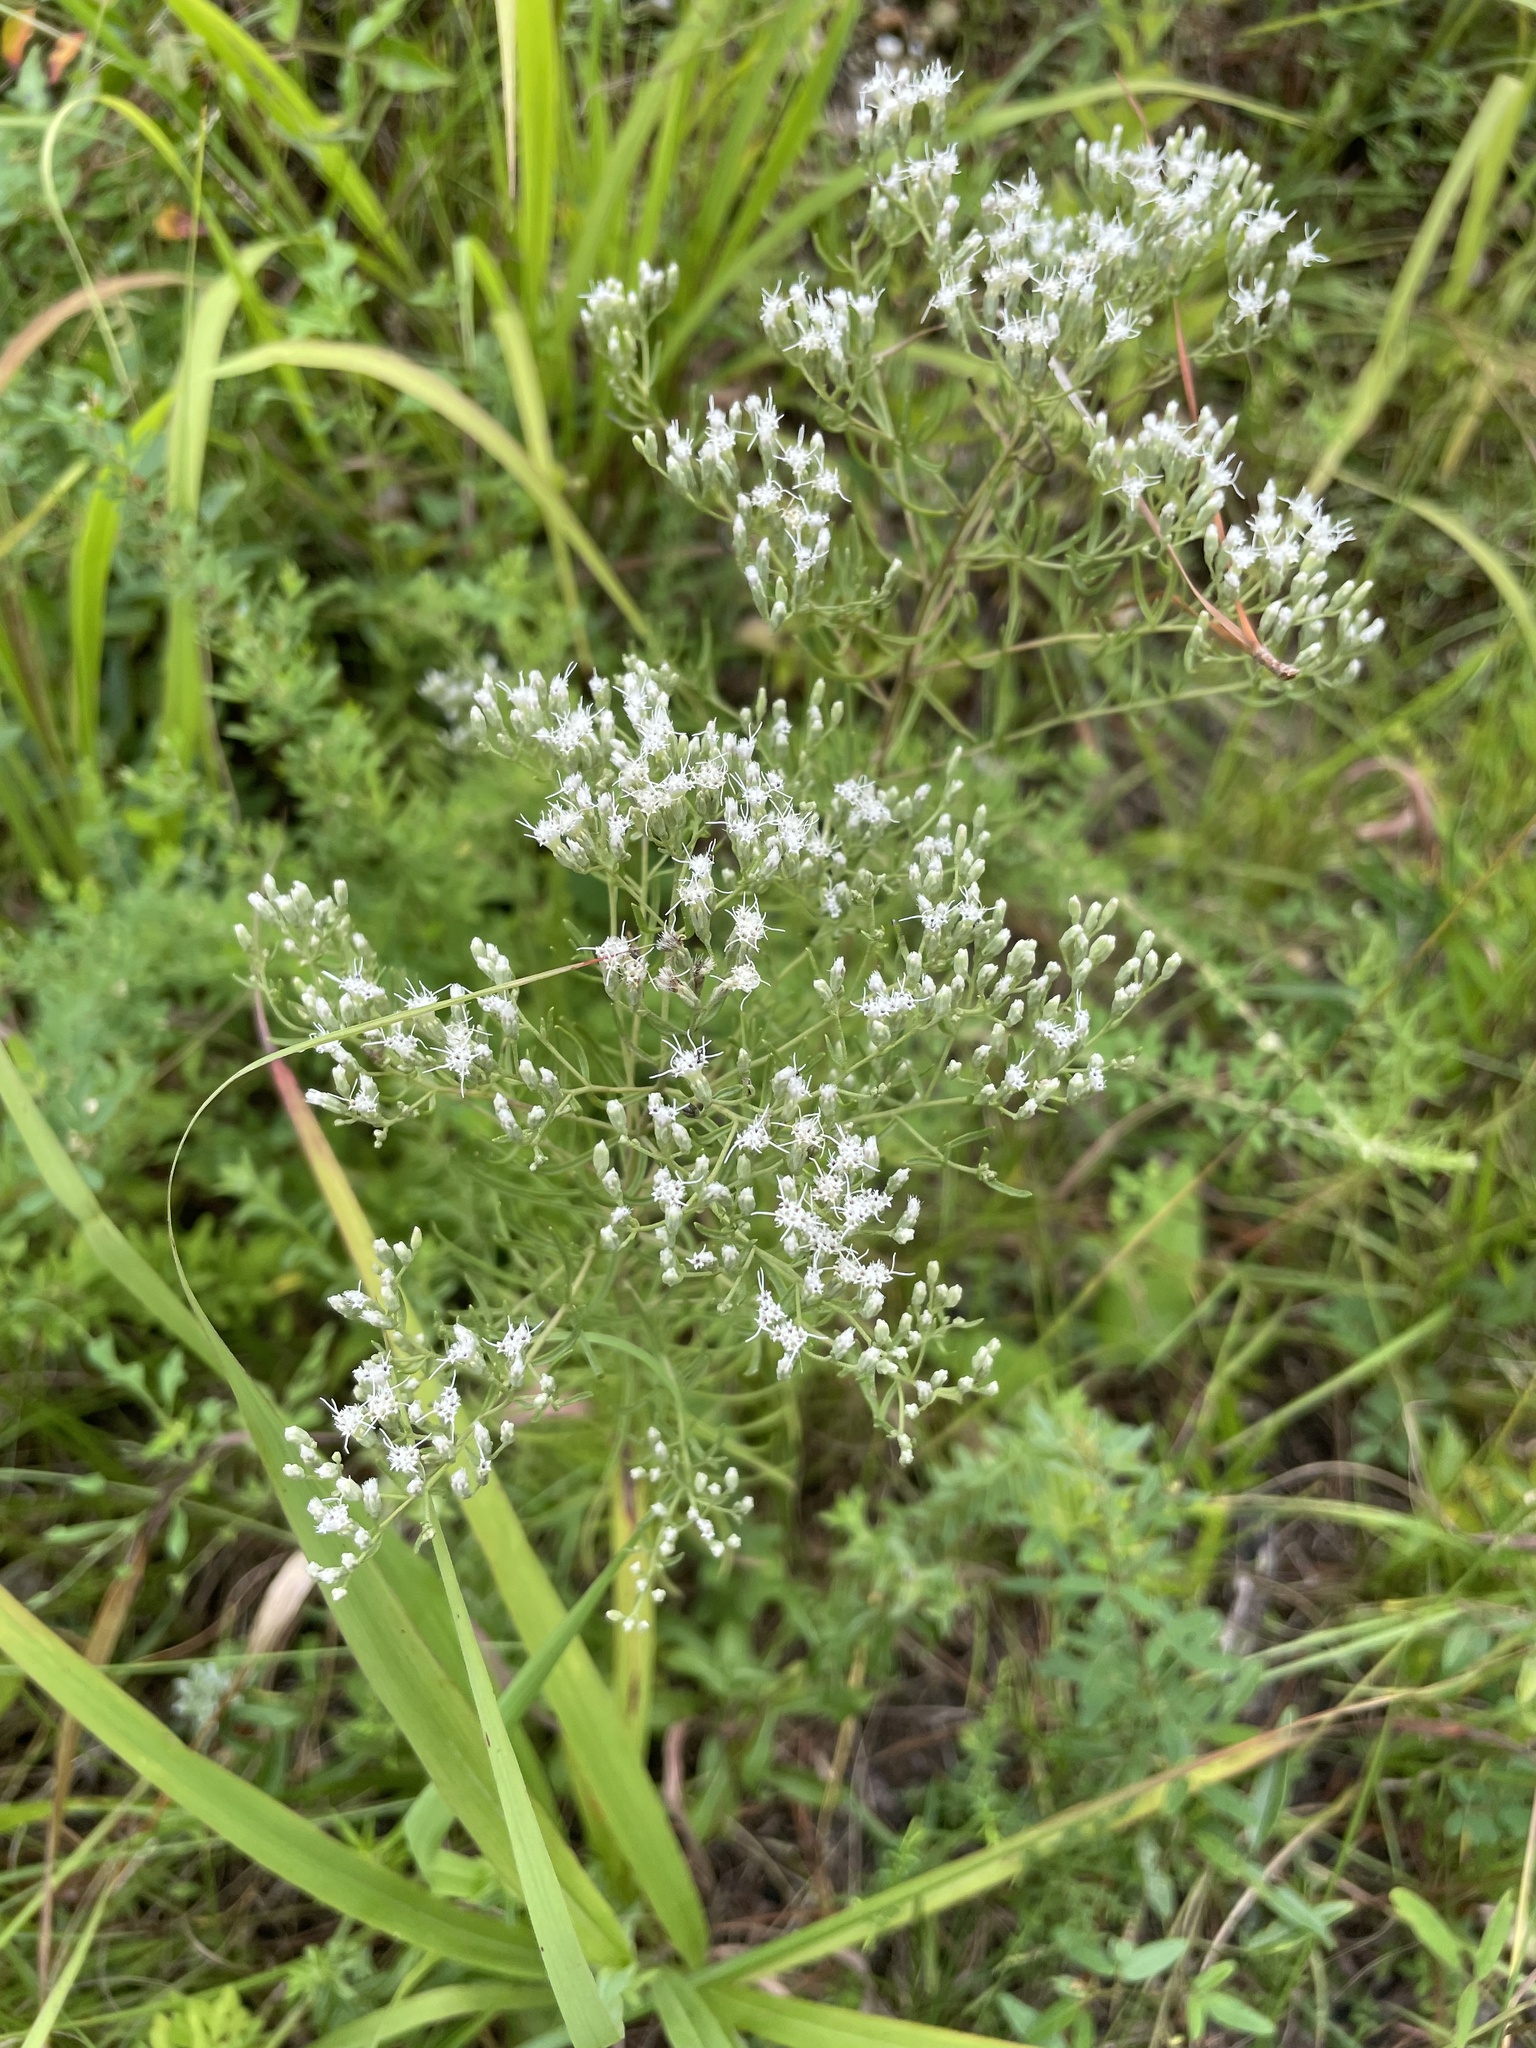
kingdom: Plantae
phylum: Tracheophyta
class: Magnoliopsida
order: Asterales
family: Asteraceae
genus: Eupatorium
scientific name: Eupatorium hyssopifolium
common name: Hyssop-leaf thoroughwort
